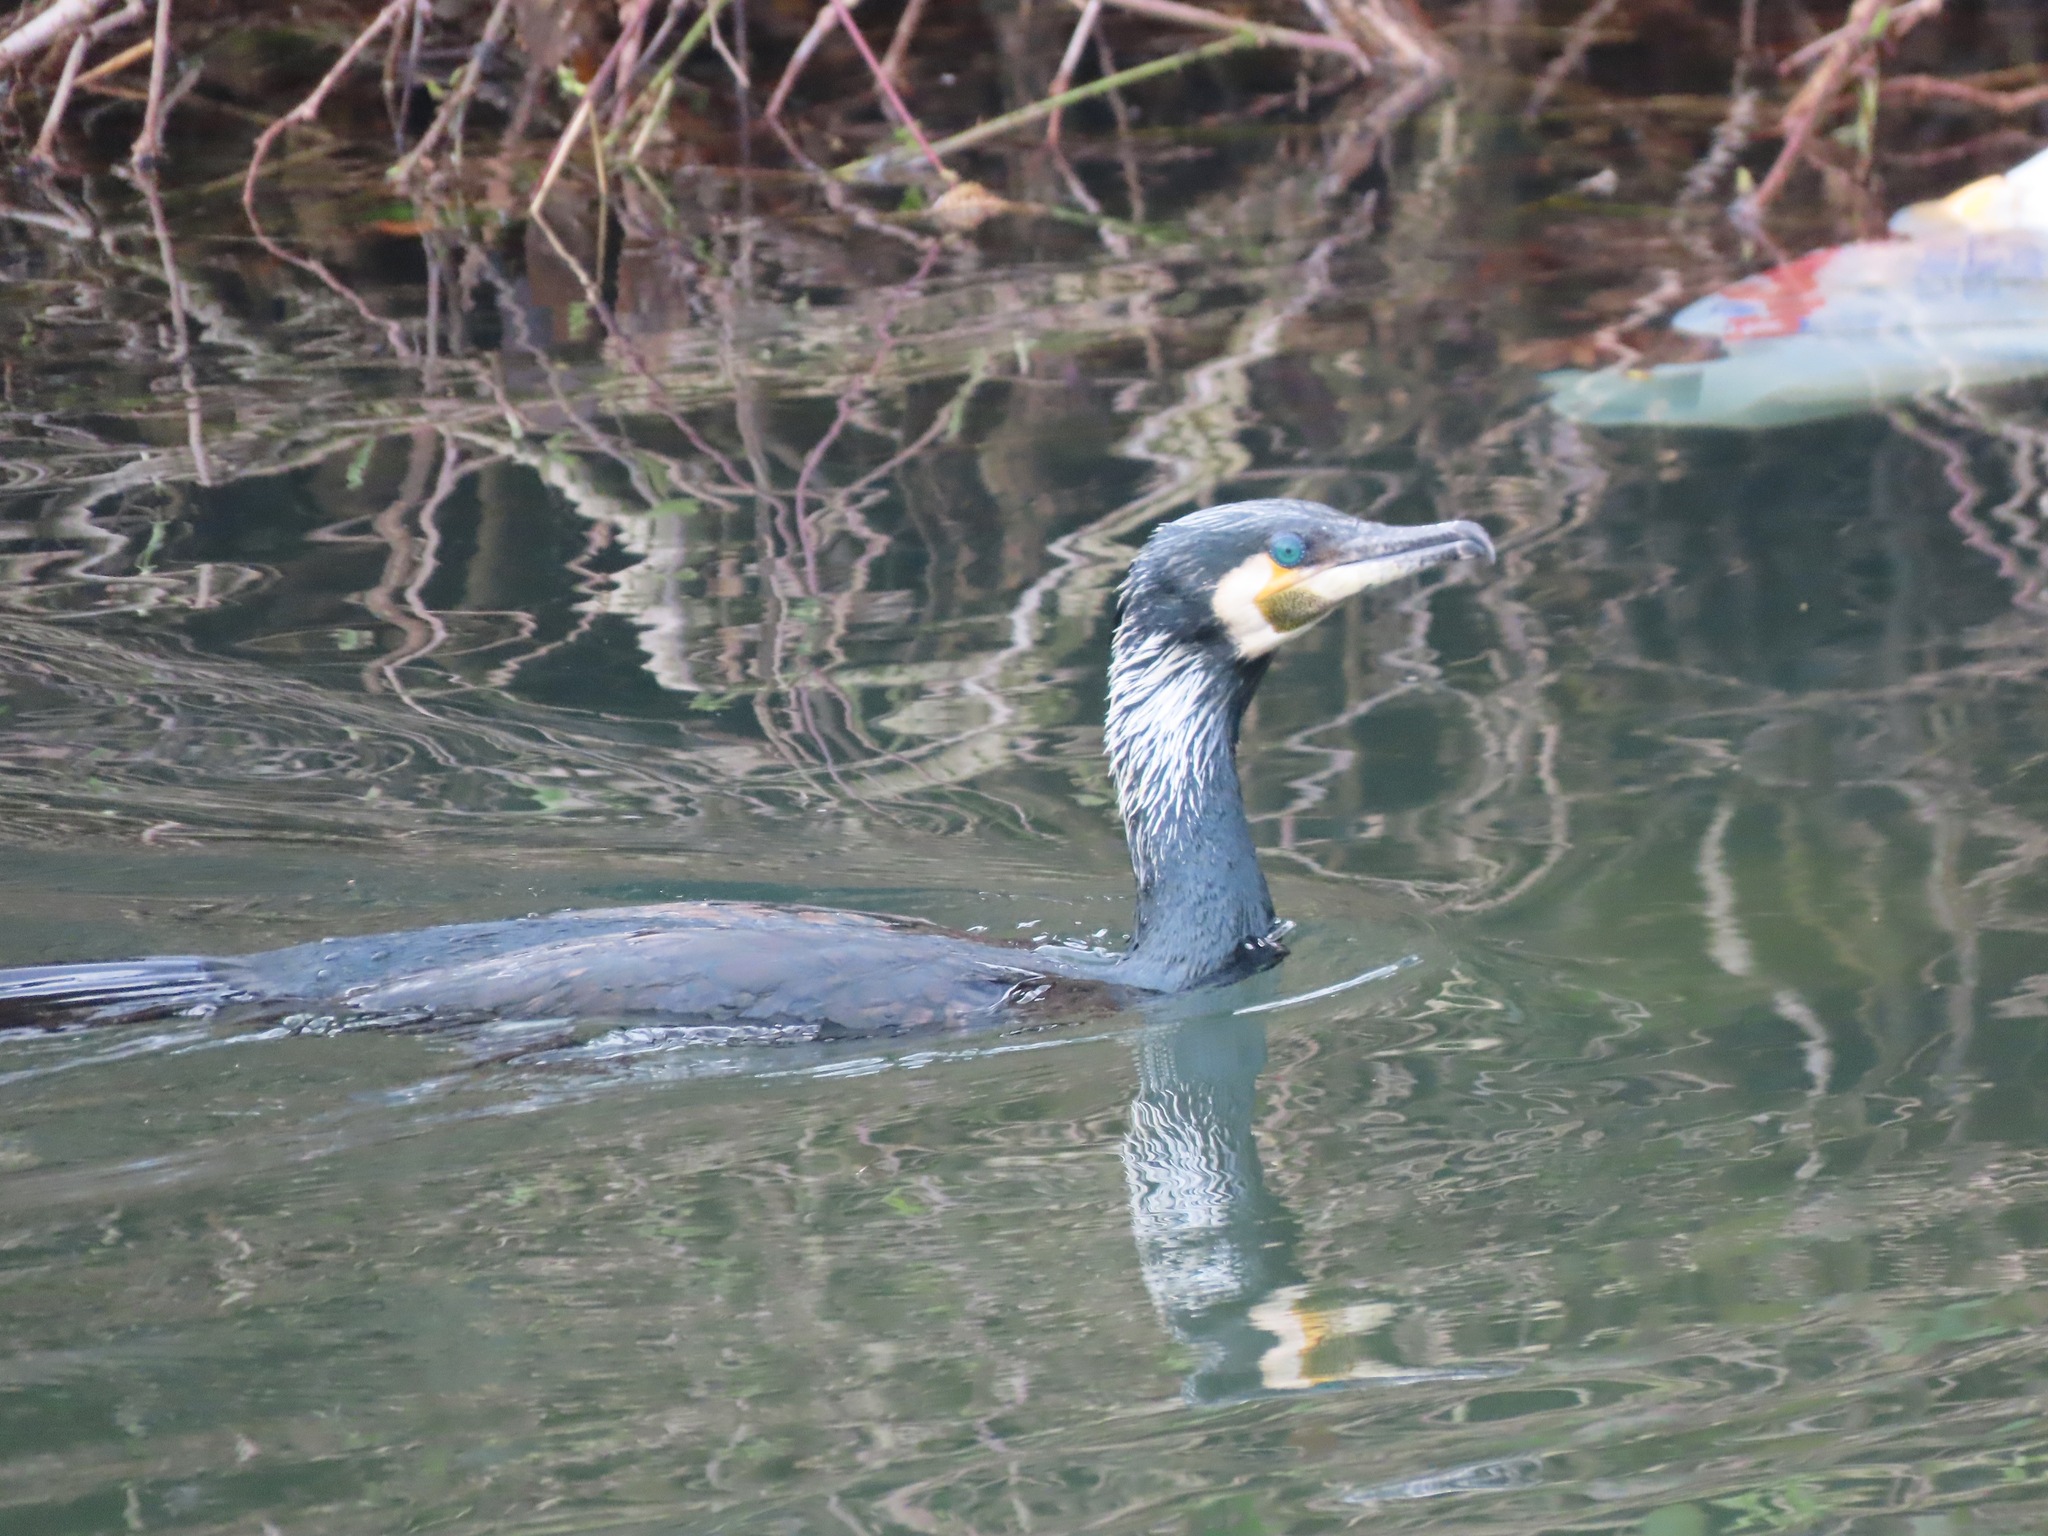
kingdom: Animalia
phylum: Chordata
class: Aves
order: Suliformes
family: Phalacrocoracidae
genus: Phalacrocorax
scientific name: Phalacrocorax carbo
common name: Great cormorant
